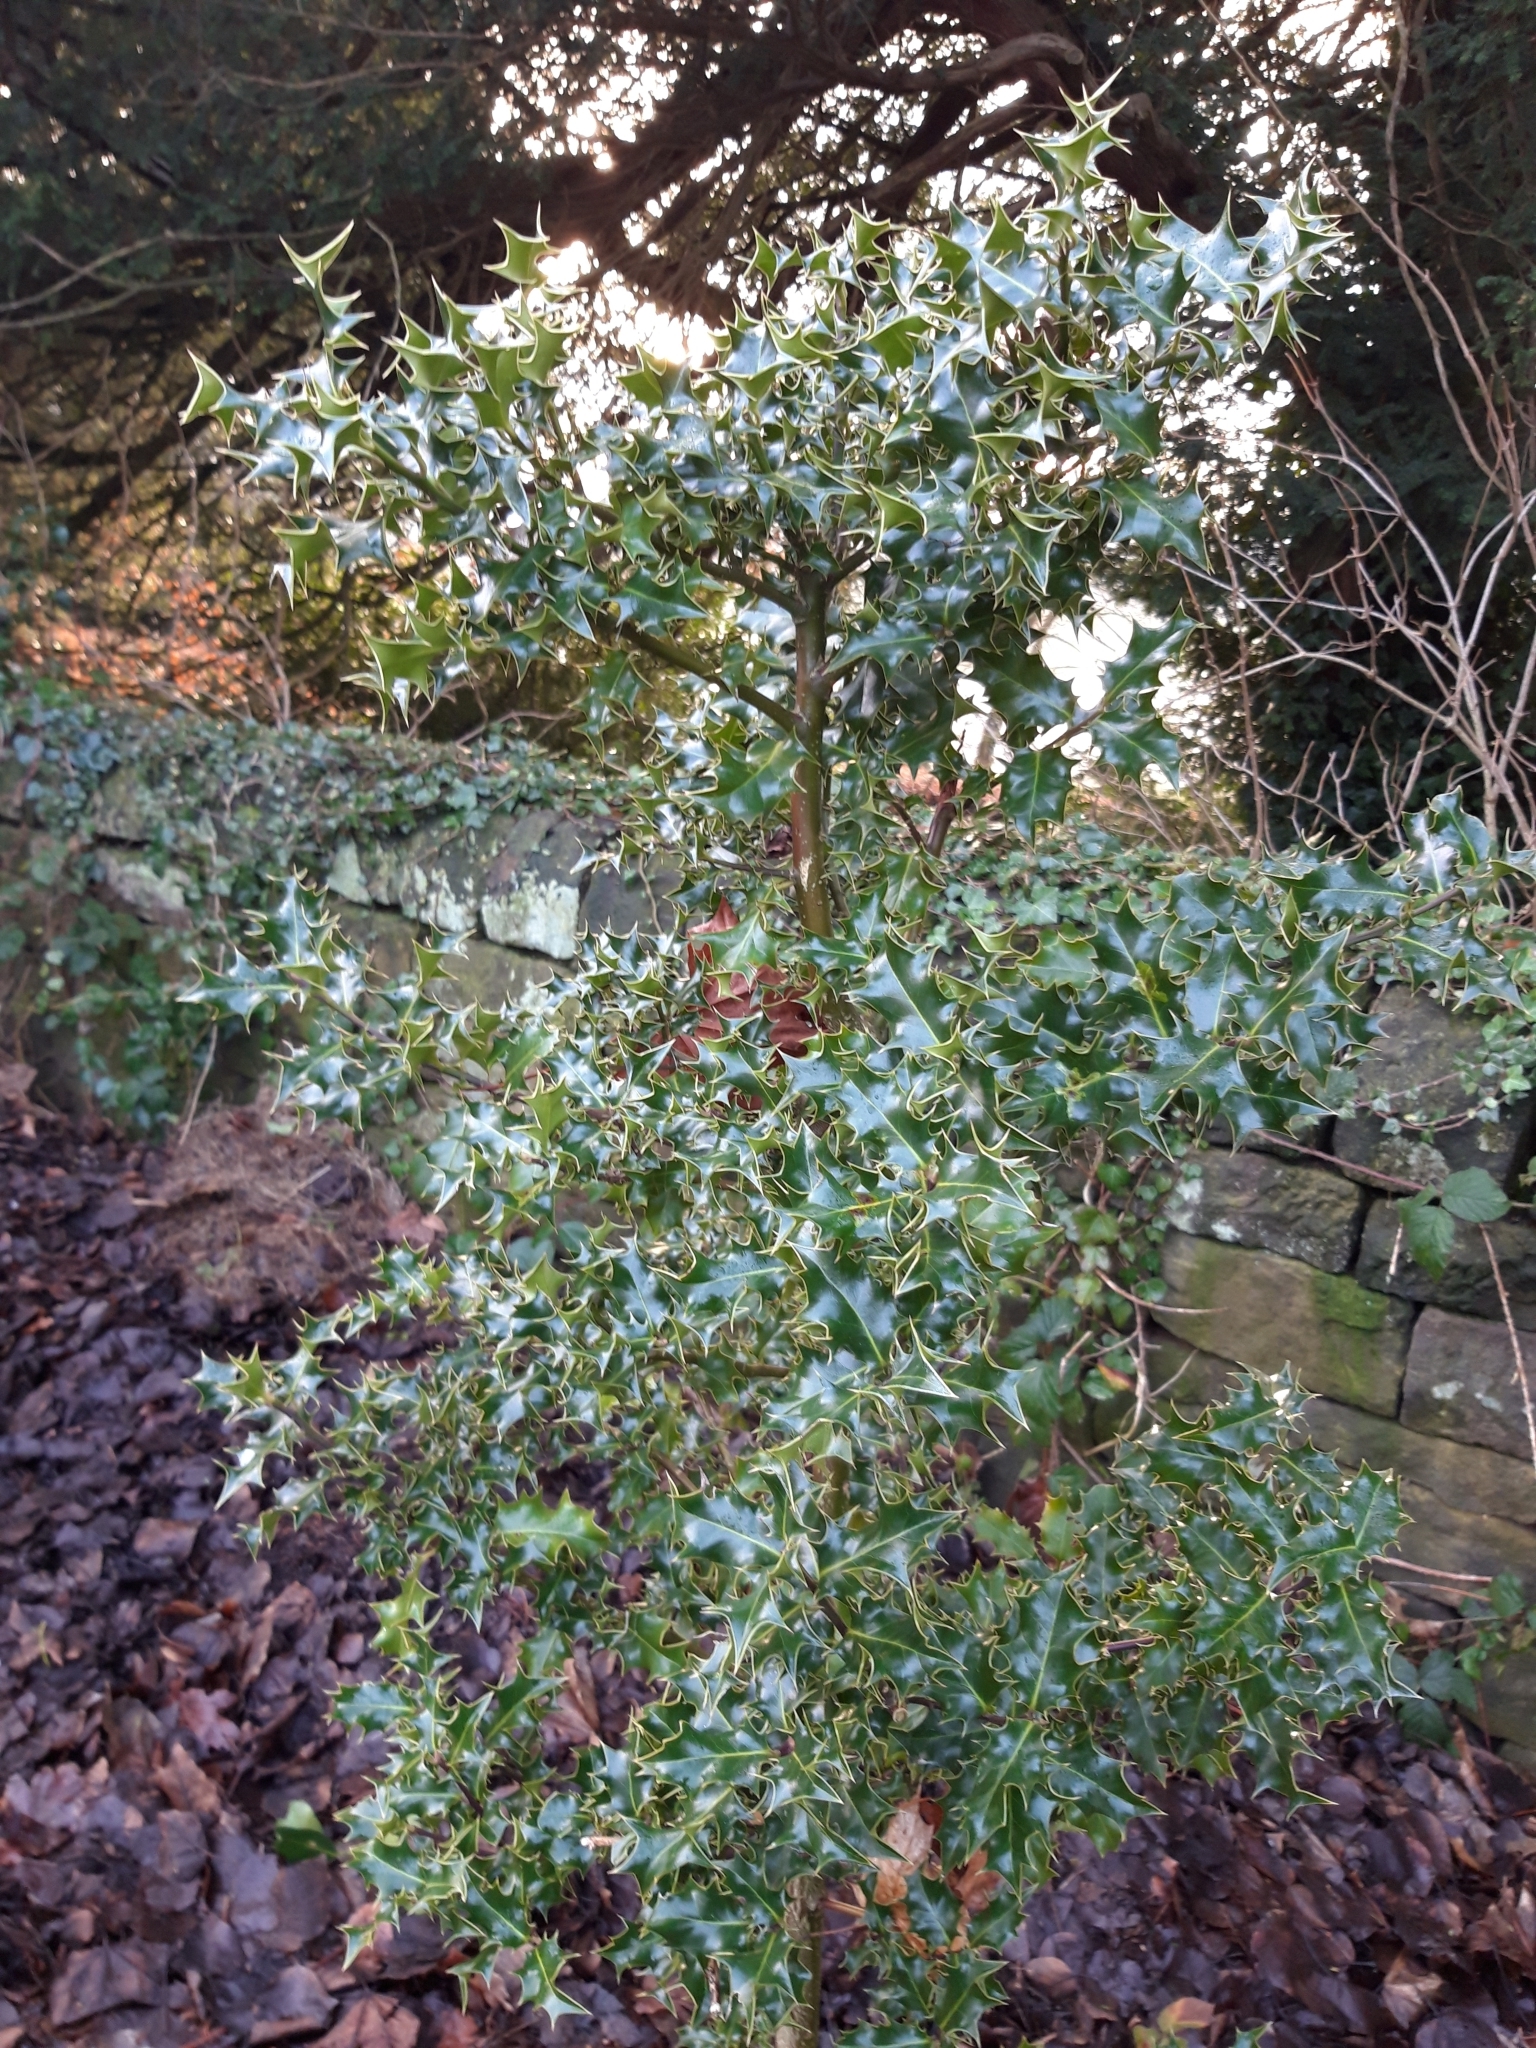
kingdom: Plantae
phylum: Tracheophyta
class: Magnoliopsida
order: Aquifoliales
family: Aquifoliaceae
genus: Ilex
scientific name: Ilex aquifolium
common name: English holly
